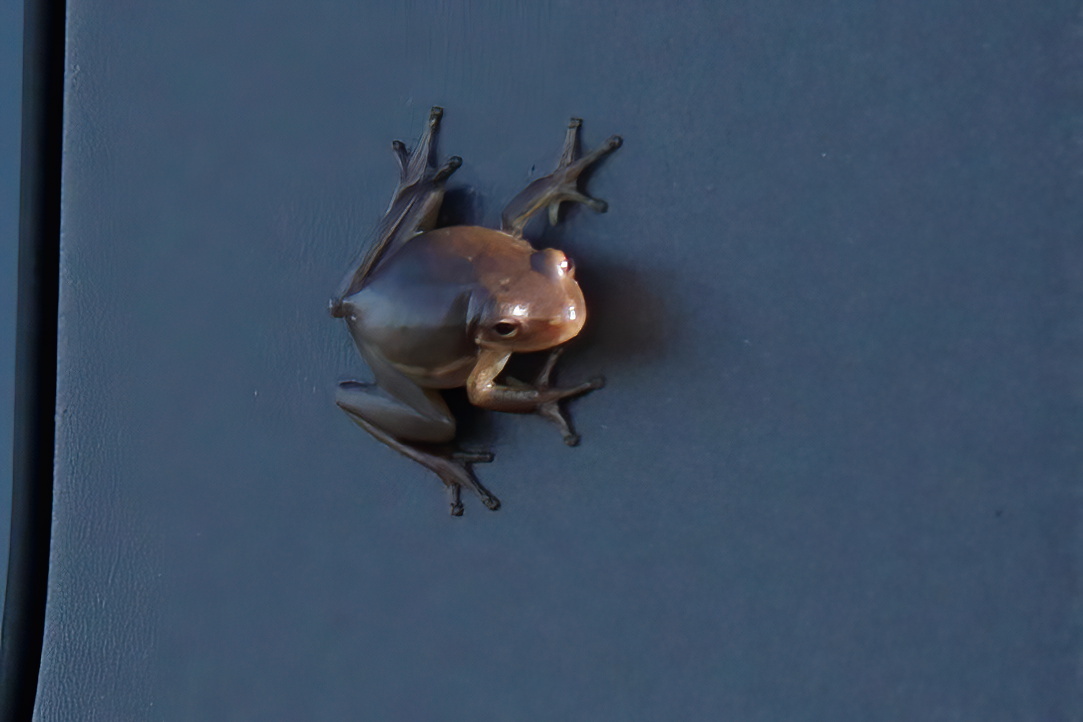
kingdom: Animalia
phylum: Chordata
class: Amphibia
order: Anura
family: Hylidae
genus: Dryophytes
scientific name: Dryophytes cinereus
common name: Green treefrog
